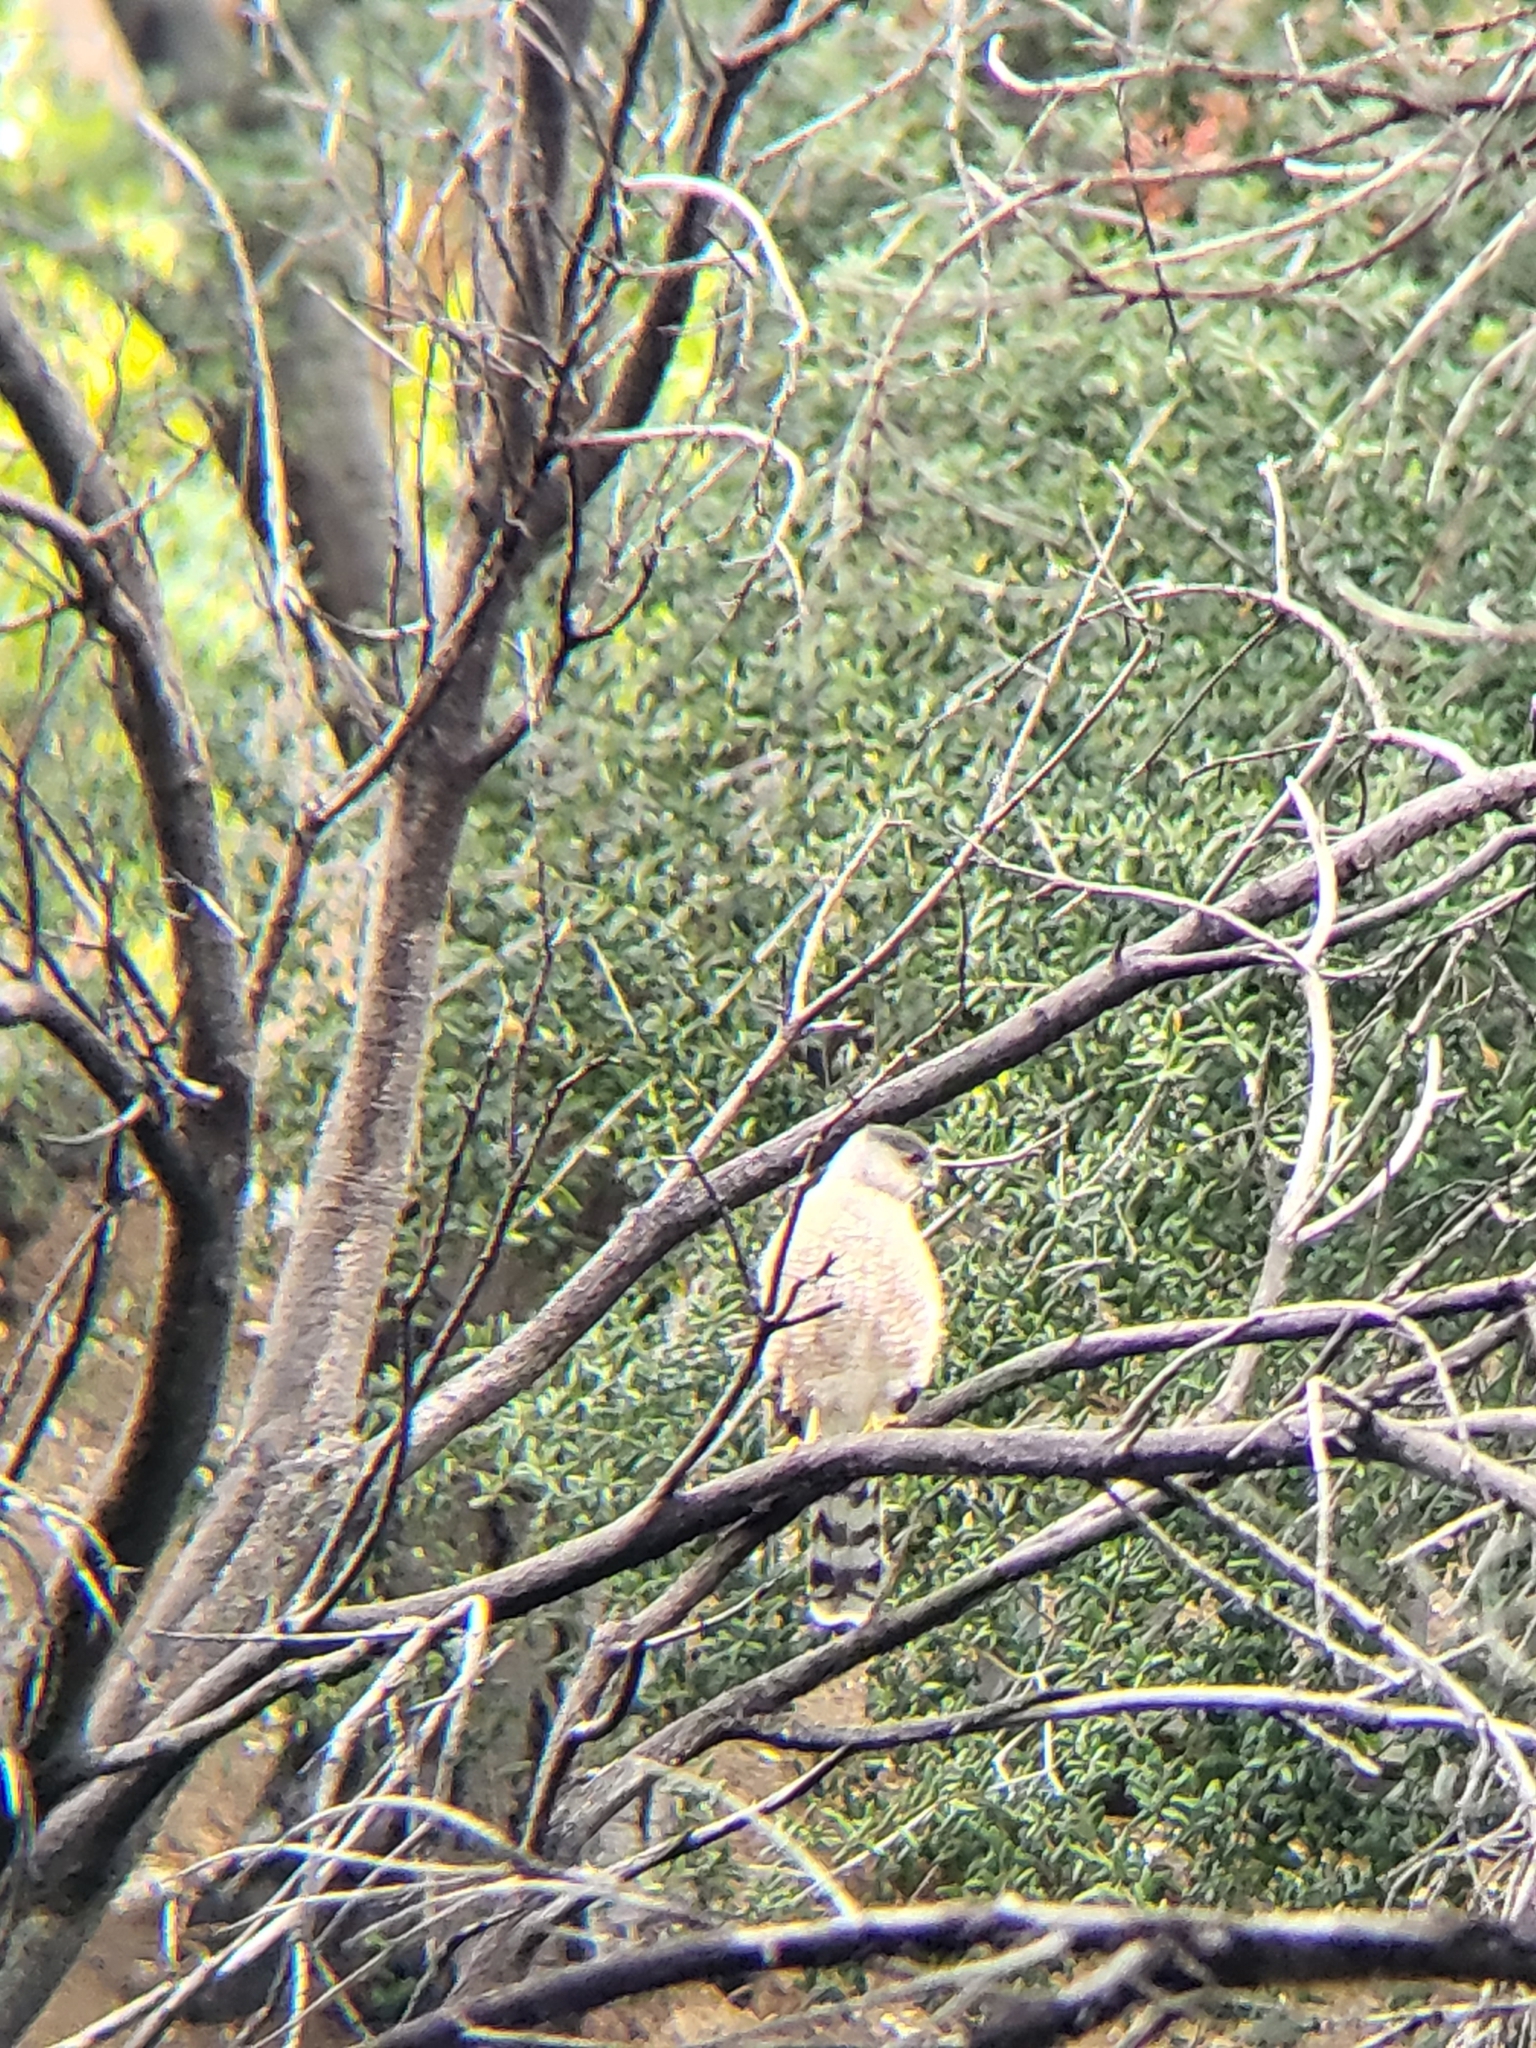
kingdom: Animalia
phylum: Chordata
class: Aves
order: Accipitriformes
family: Accipitridae
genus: Accipiter
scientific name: Accipiter cooperii
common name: Cooper's hawk
